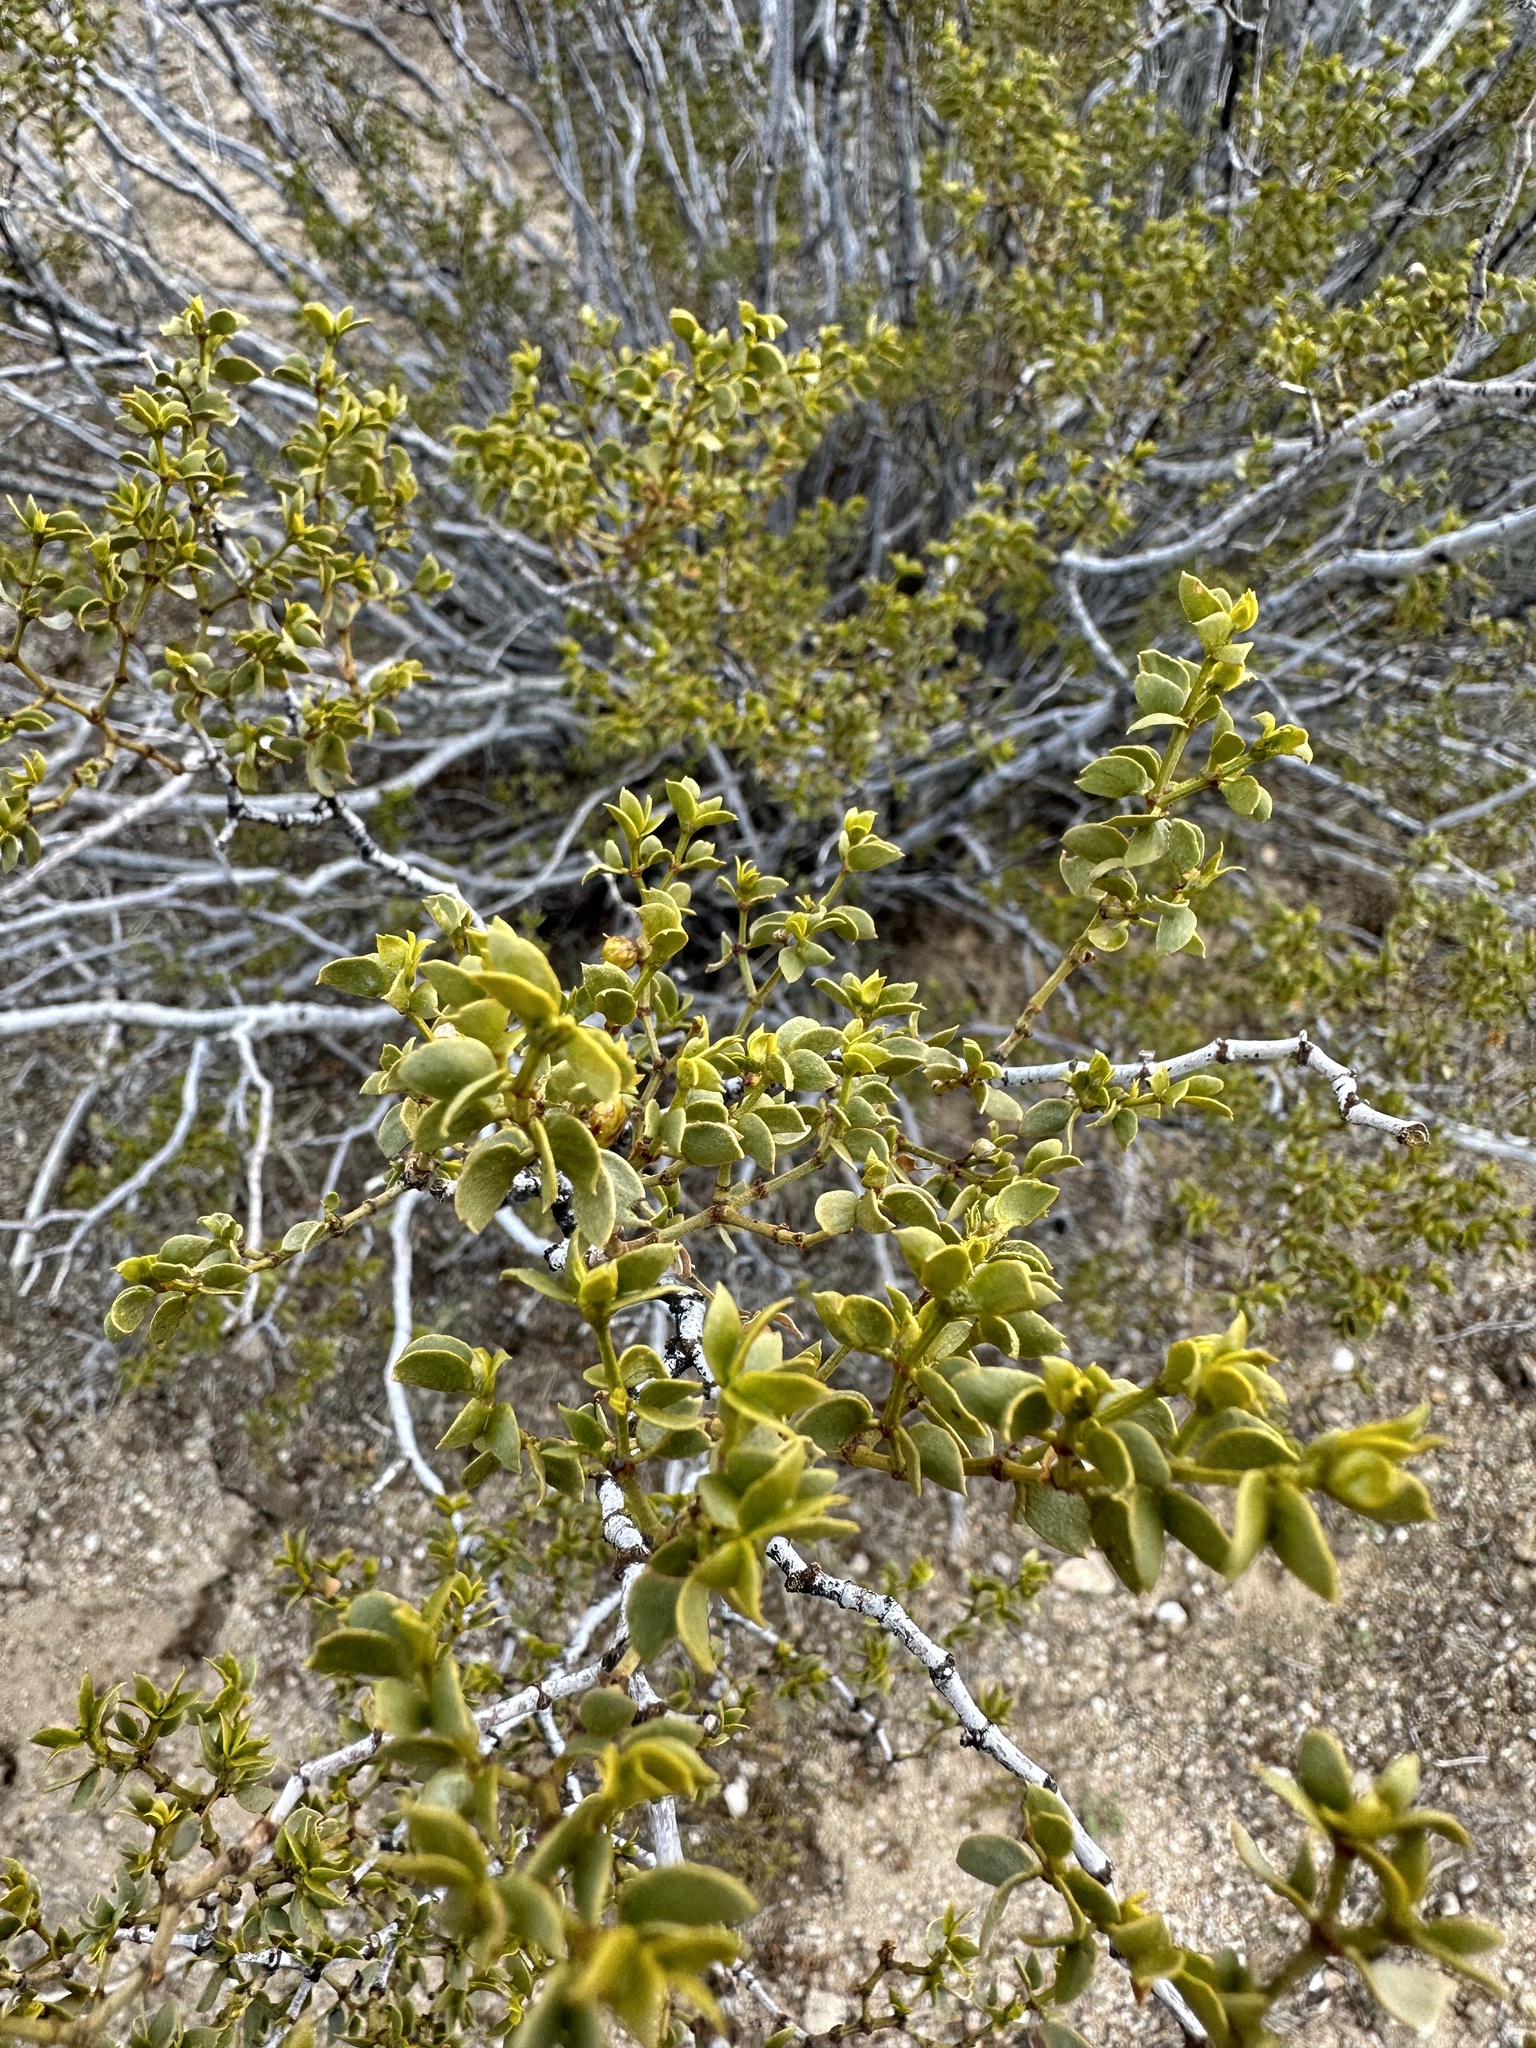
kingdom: Plantae
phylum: Tracheophyta
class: Magnoliopsida
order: Zygophyllales
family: Zygophyllaceae
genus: Larrea
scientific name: Larrea tridentata
